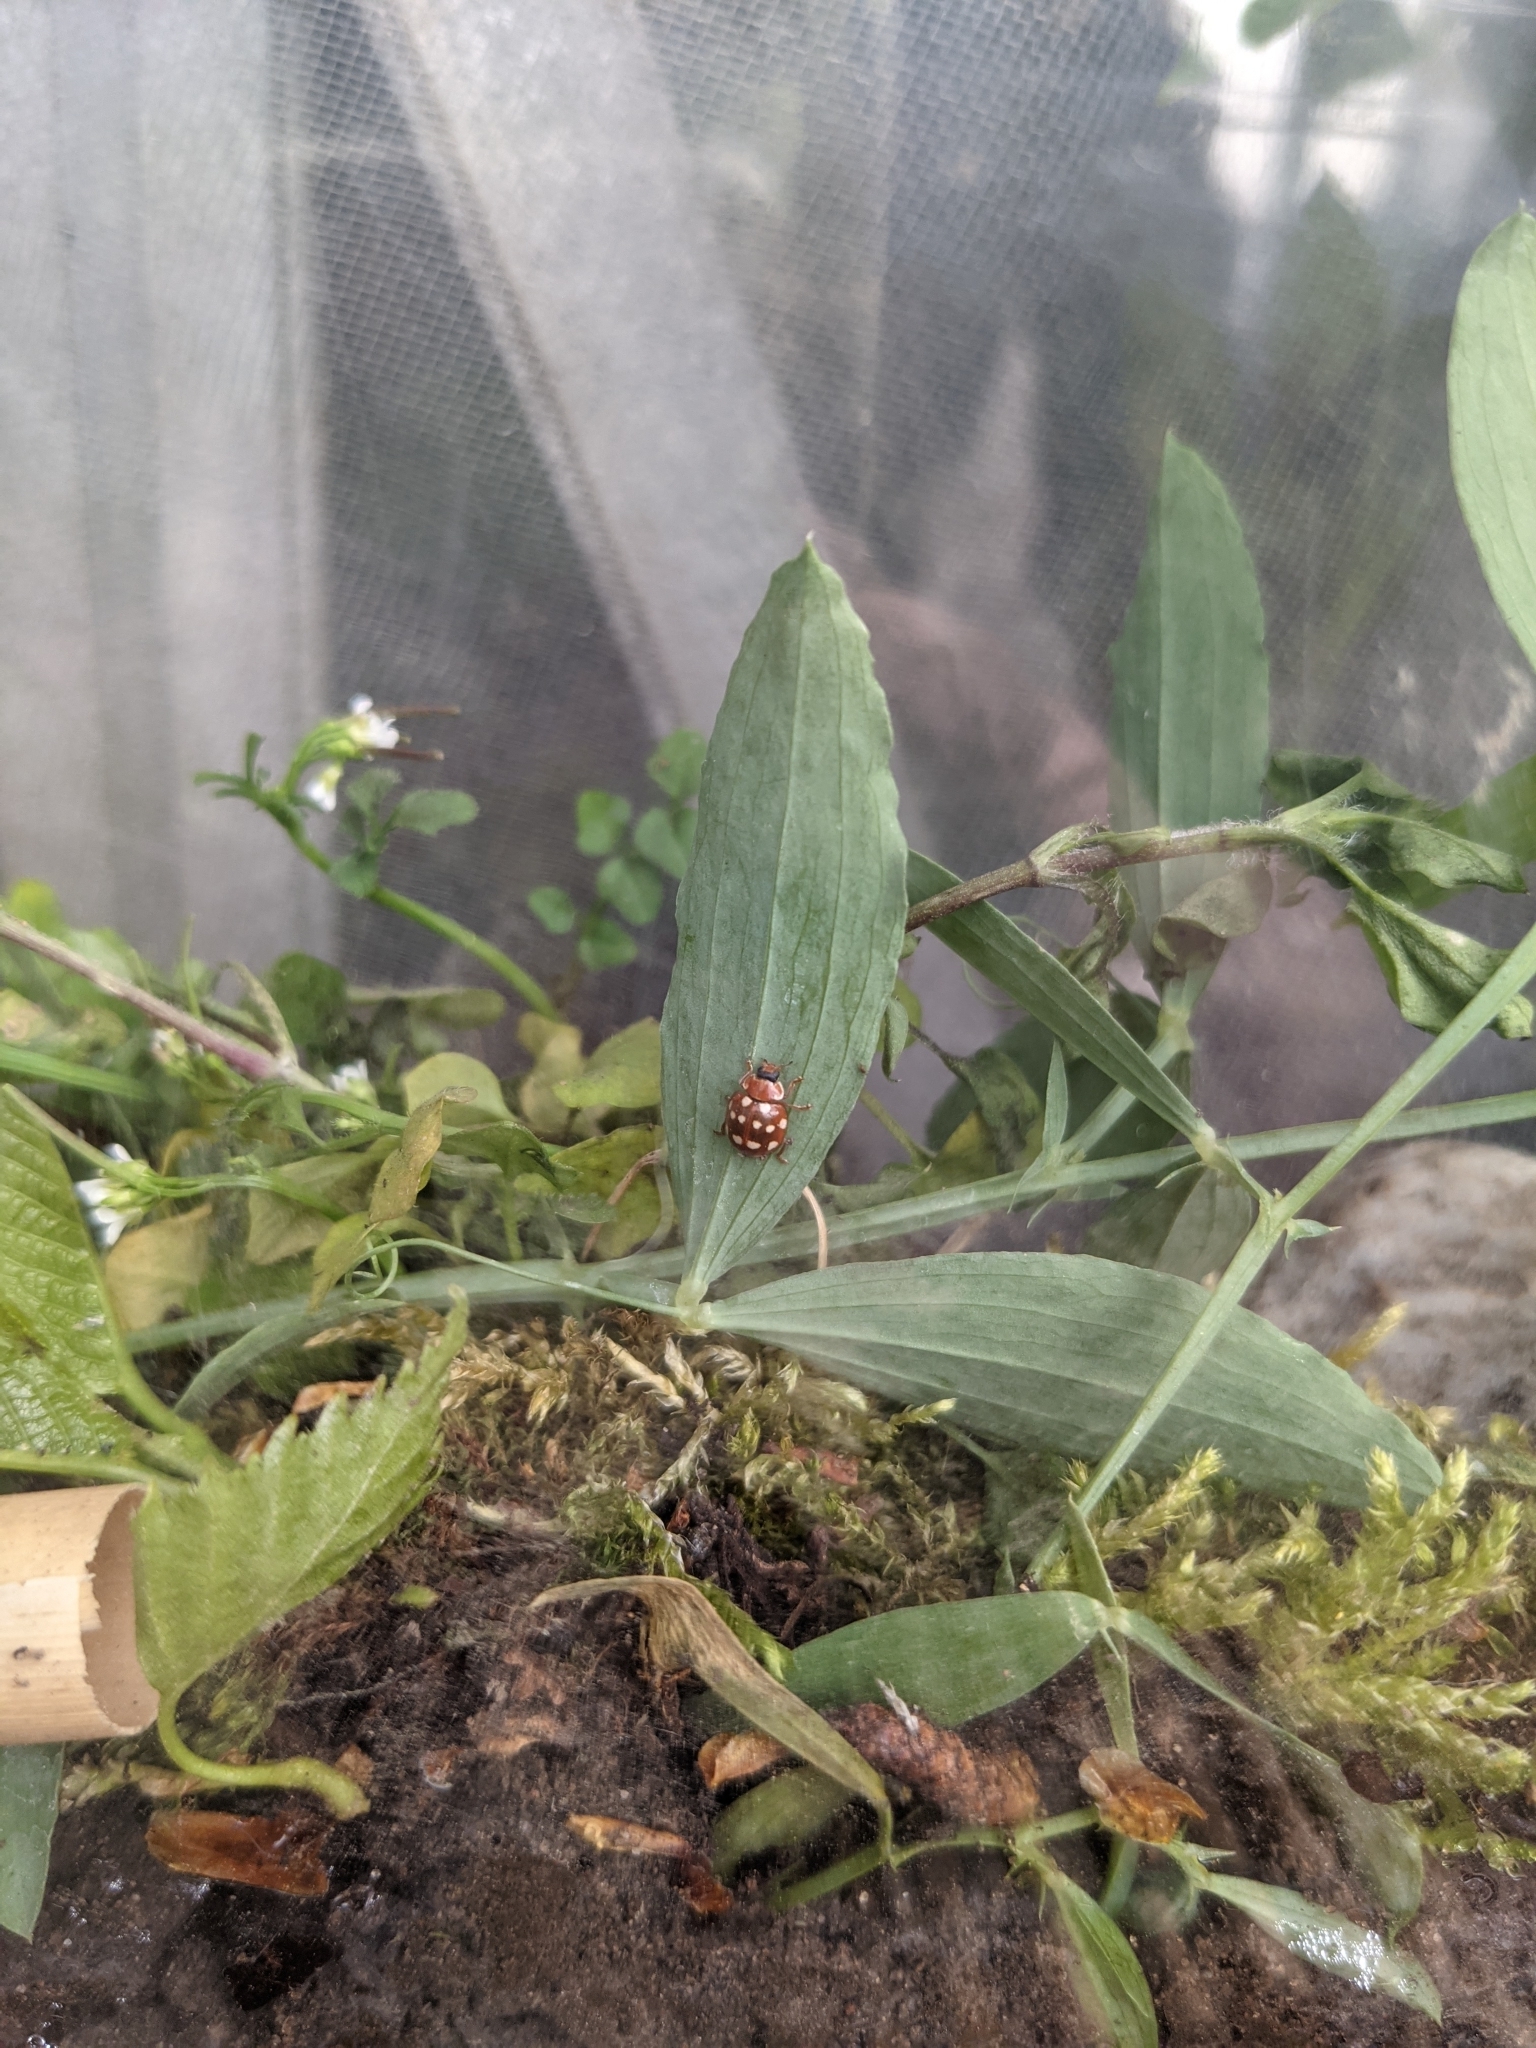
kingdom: Animalia
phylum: Arthropoda
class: Insecta
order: Coleoptera
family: Coccinellidae
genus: Calvia
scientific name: Calvia quatuordecimguttata
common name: Cream-spot ladybird
